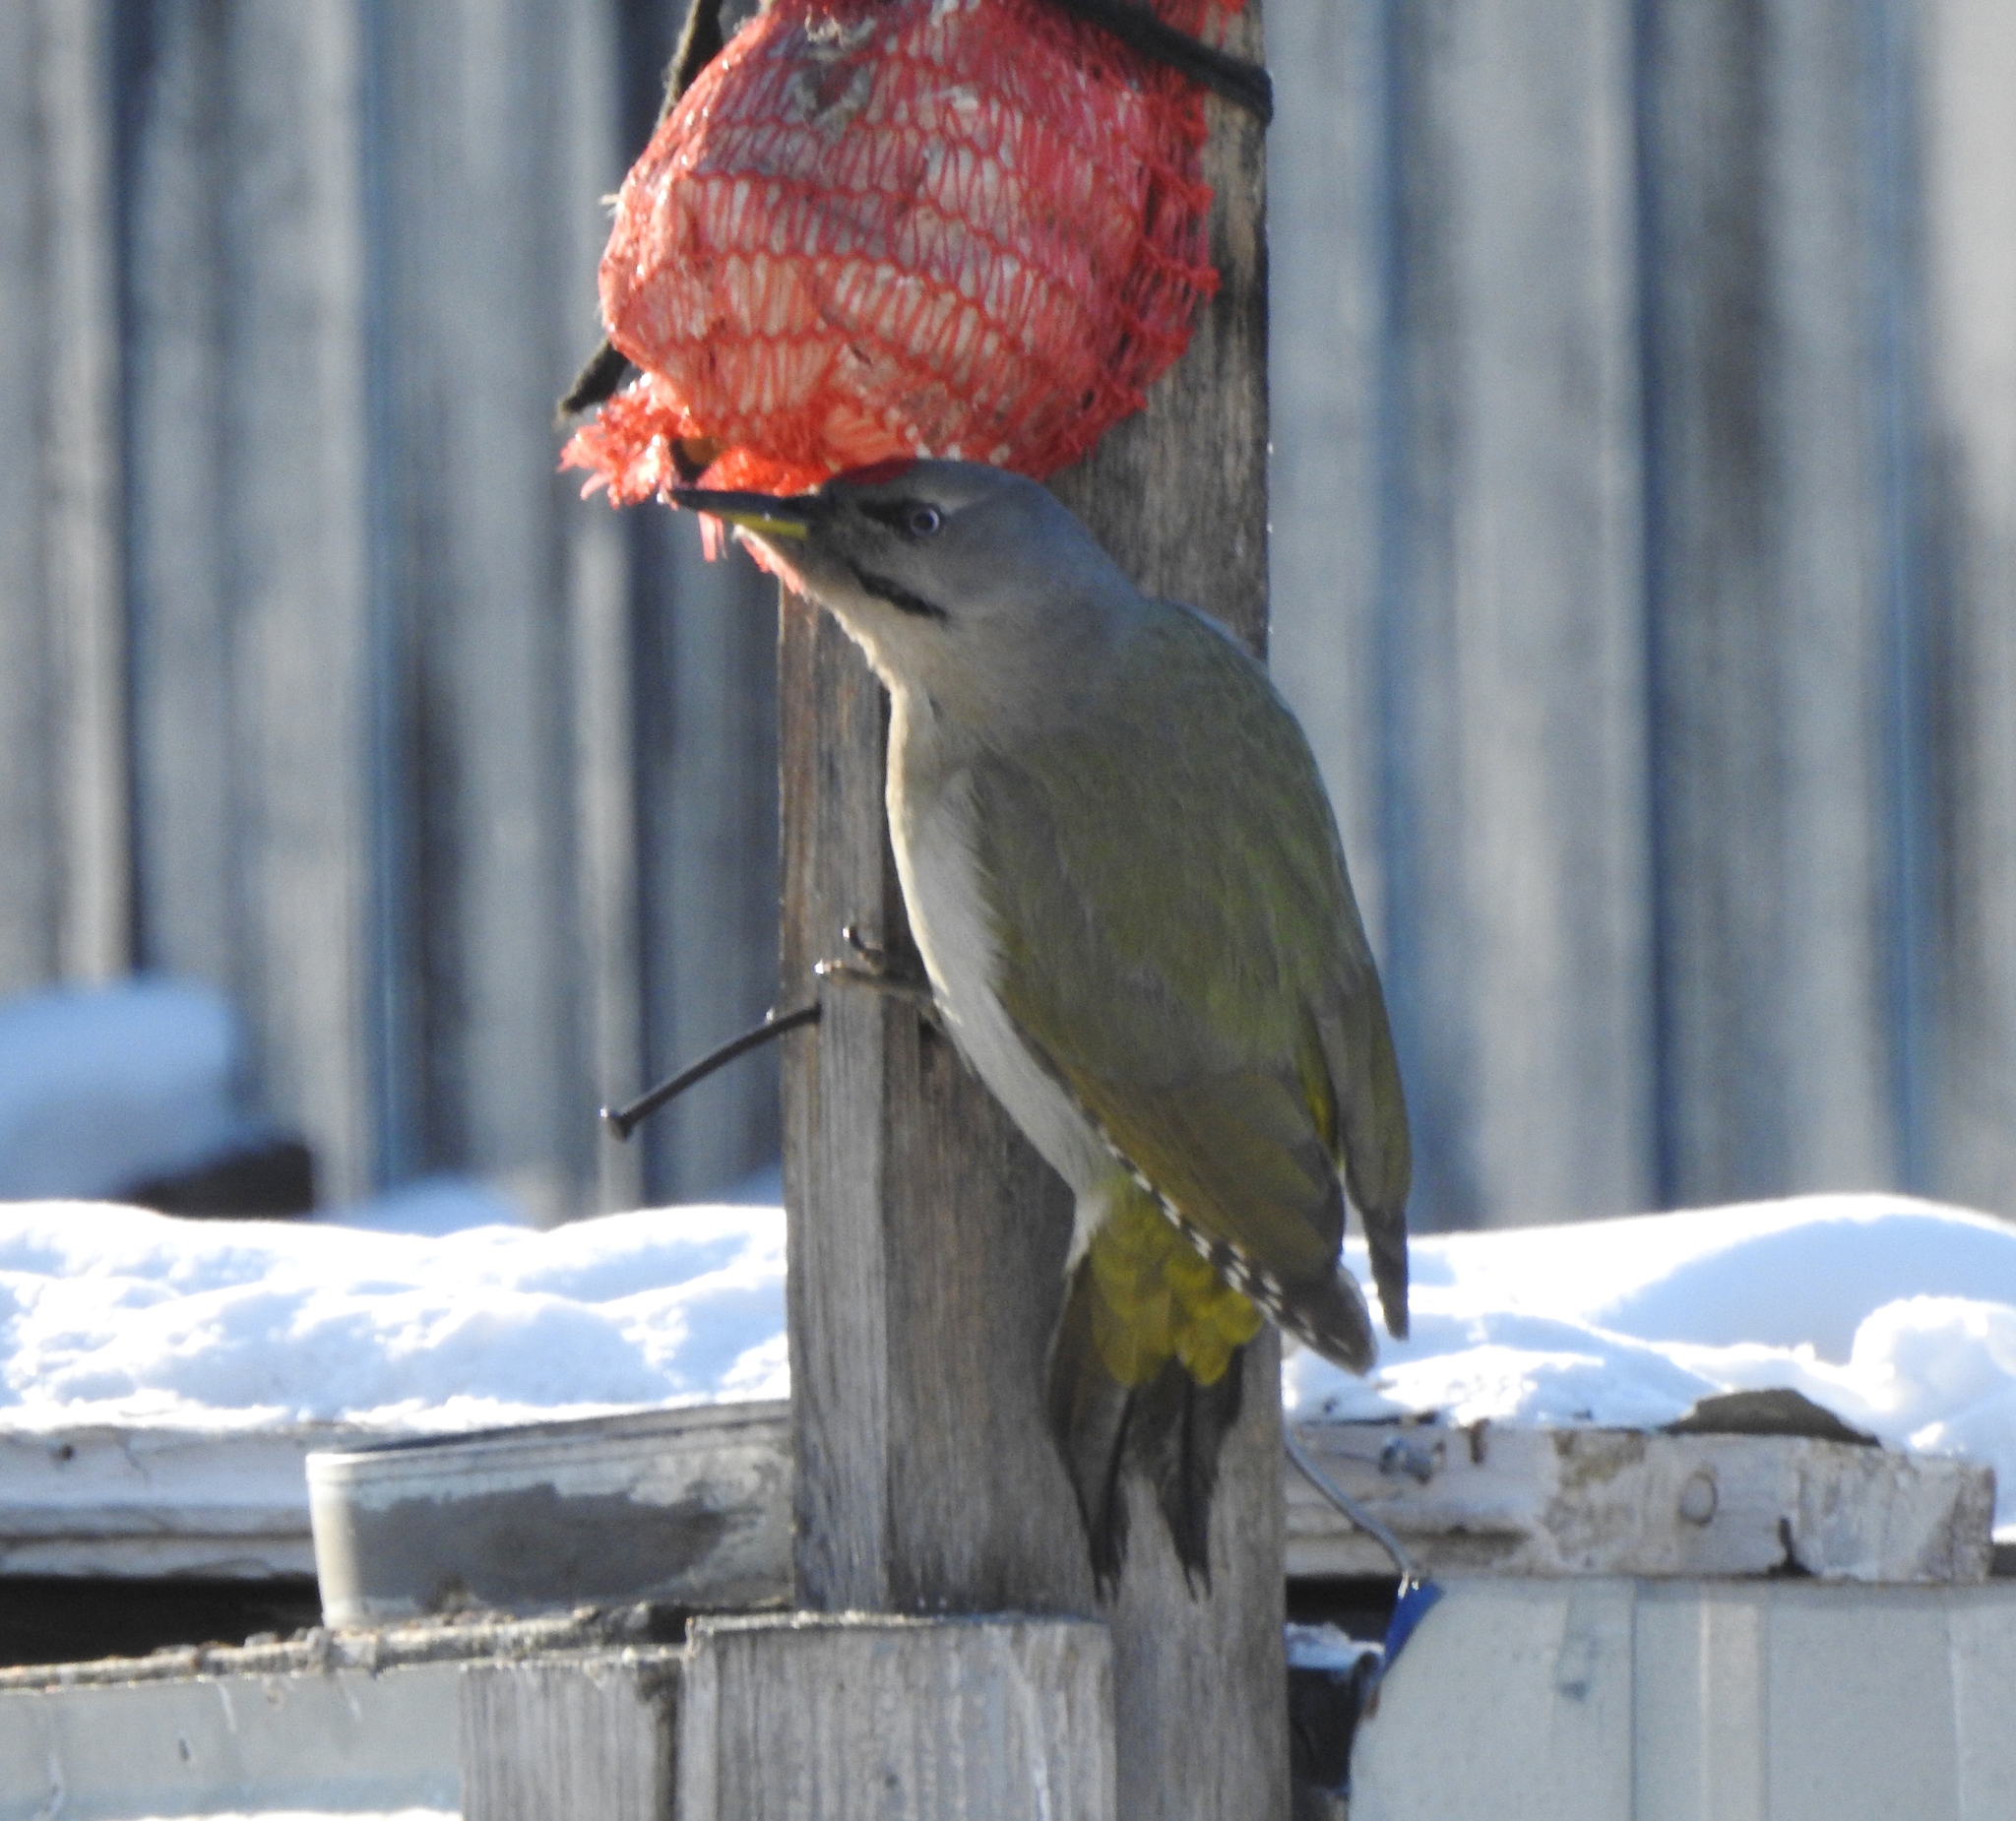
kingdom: Animalia
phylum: Chordata
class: Aves
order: Piciformes
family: Picidae
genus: Picus
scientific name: Picus canus
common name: Grey-headed woodpecker
